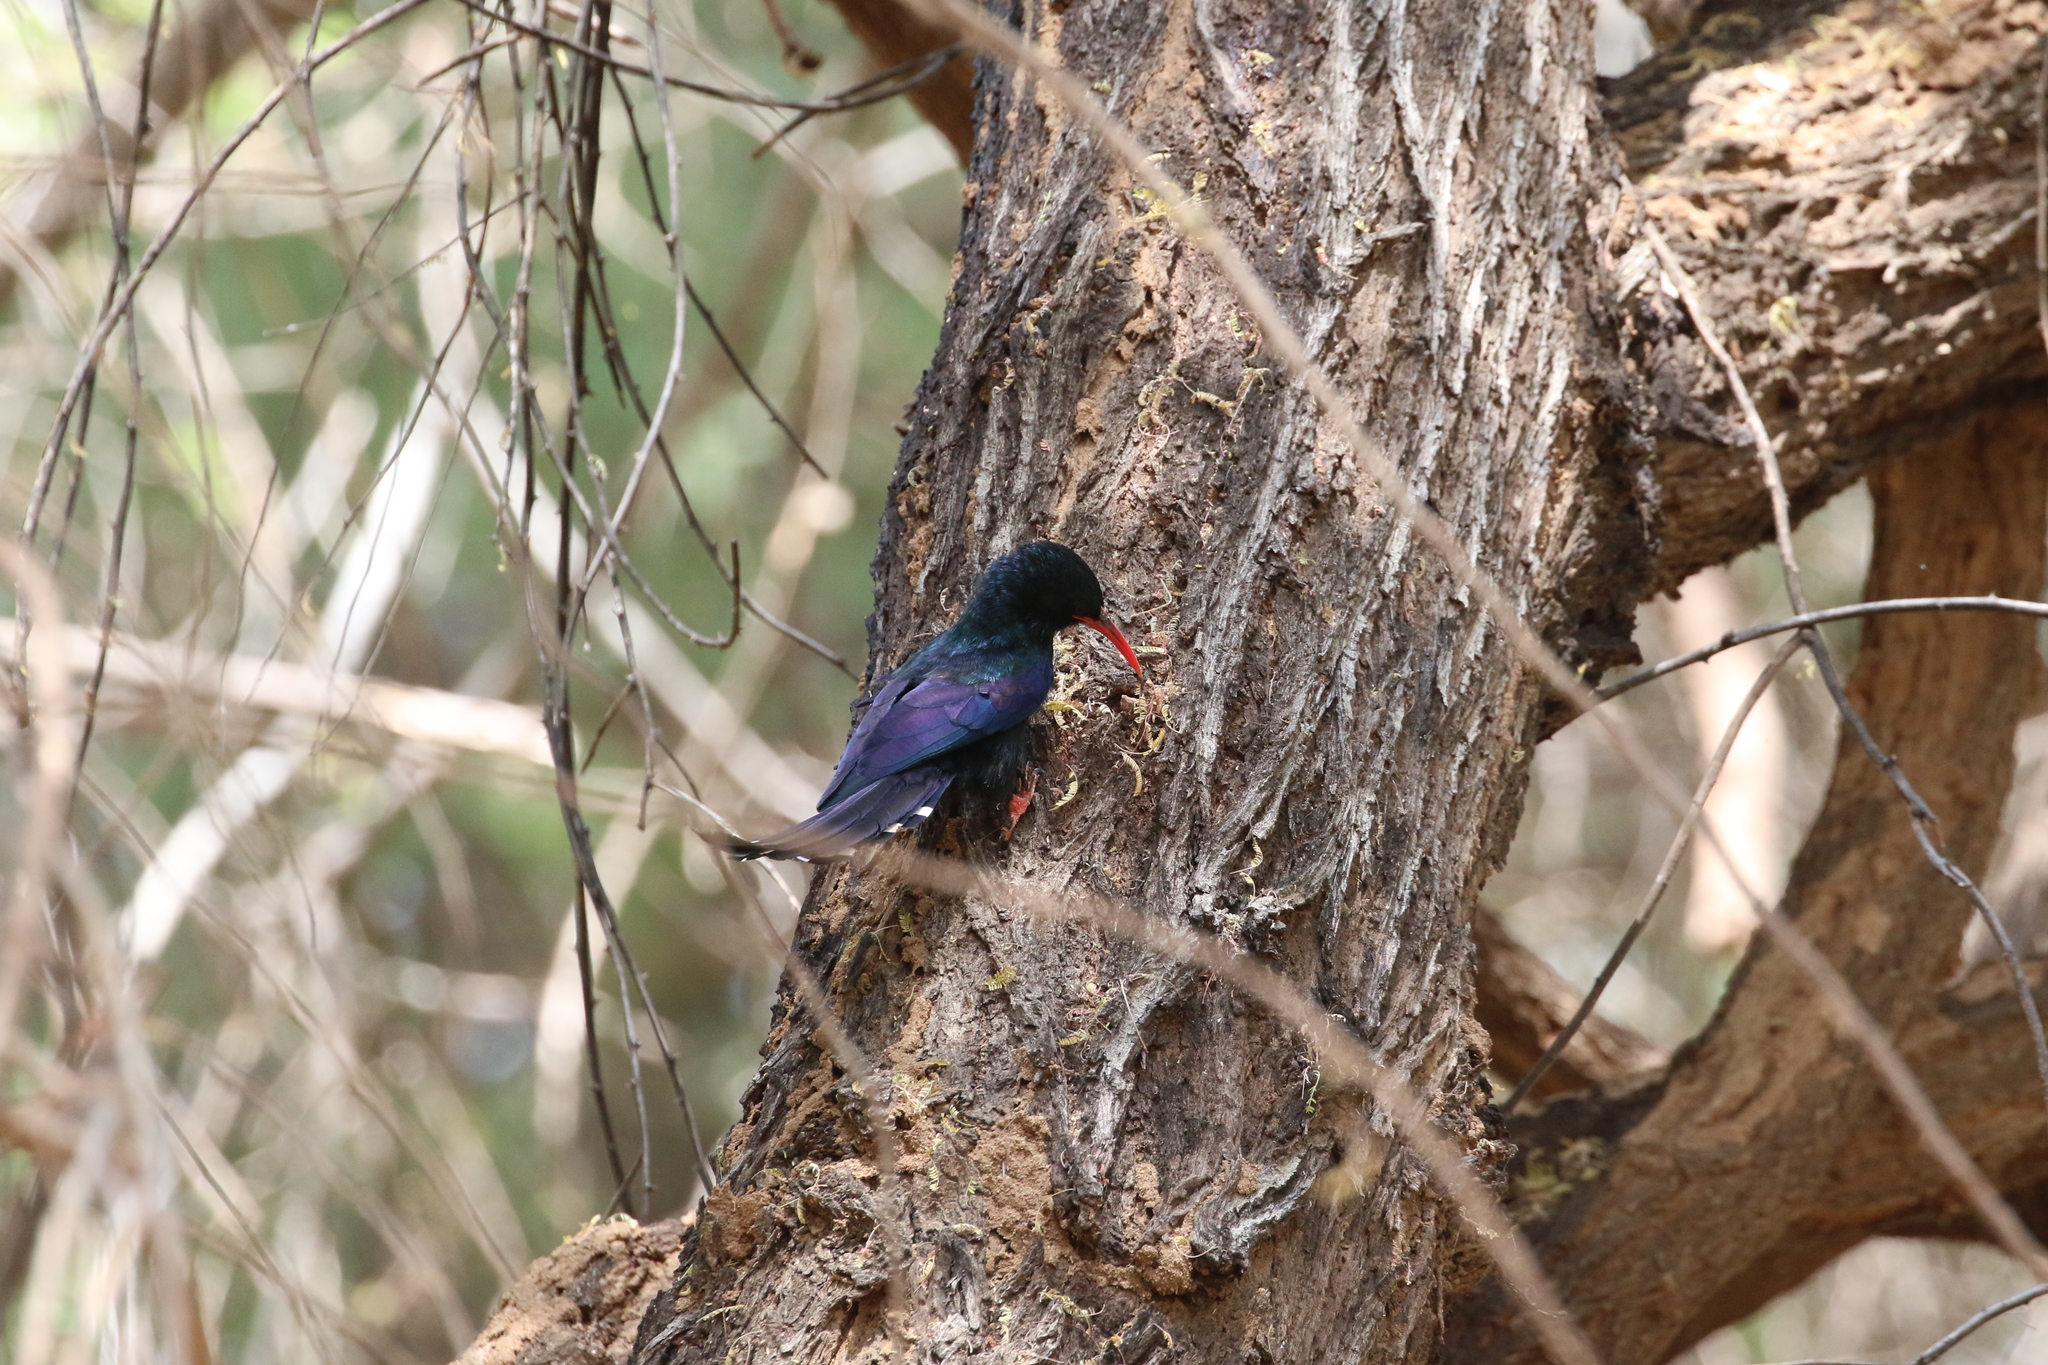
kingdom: Animalia
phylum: Chordata
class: Aves
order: Bucerotiformes
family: Phoeniculidae
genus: Phoeniculus
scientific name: Phoeniculus purpureus
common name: Green woodhoopoe
